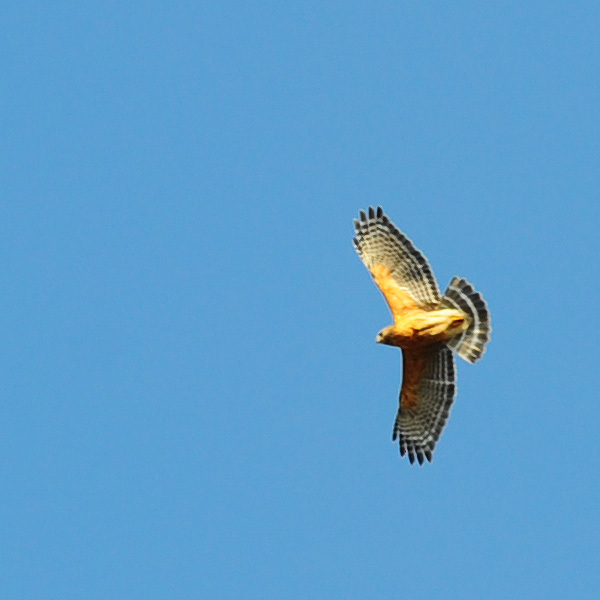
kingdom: Animalia
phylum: Chordata
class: Aves
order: Accipitriformes
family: Accipitridae
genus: Buteo
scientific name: Buteo lineatus
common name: Red-shouldered hawk
